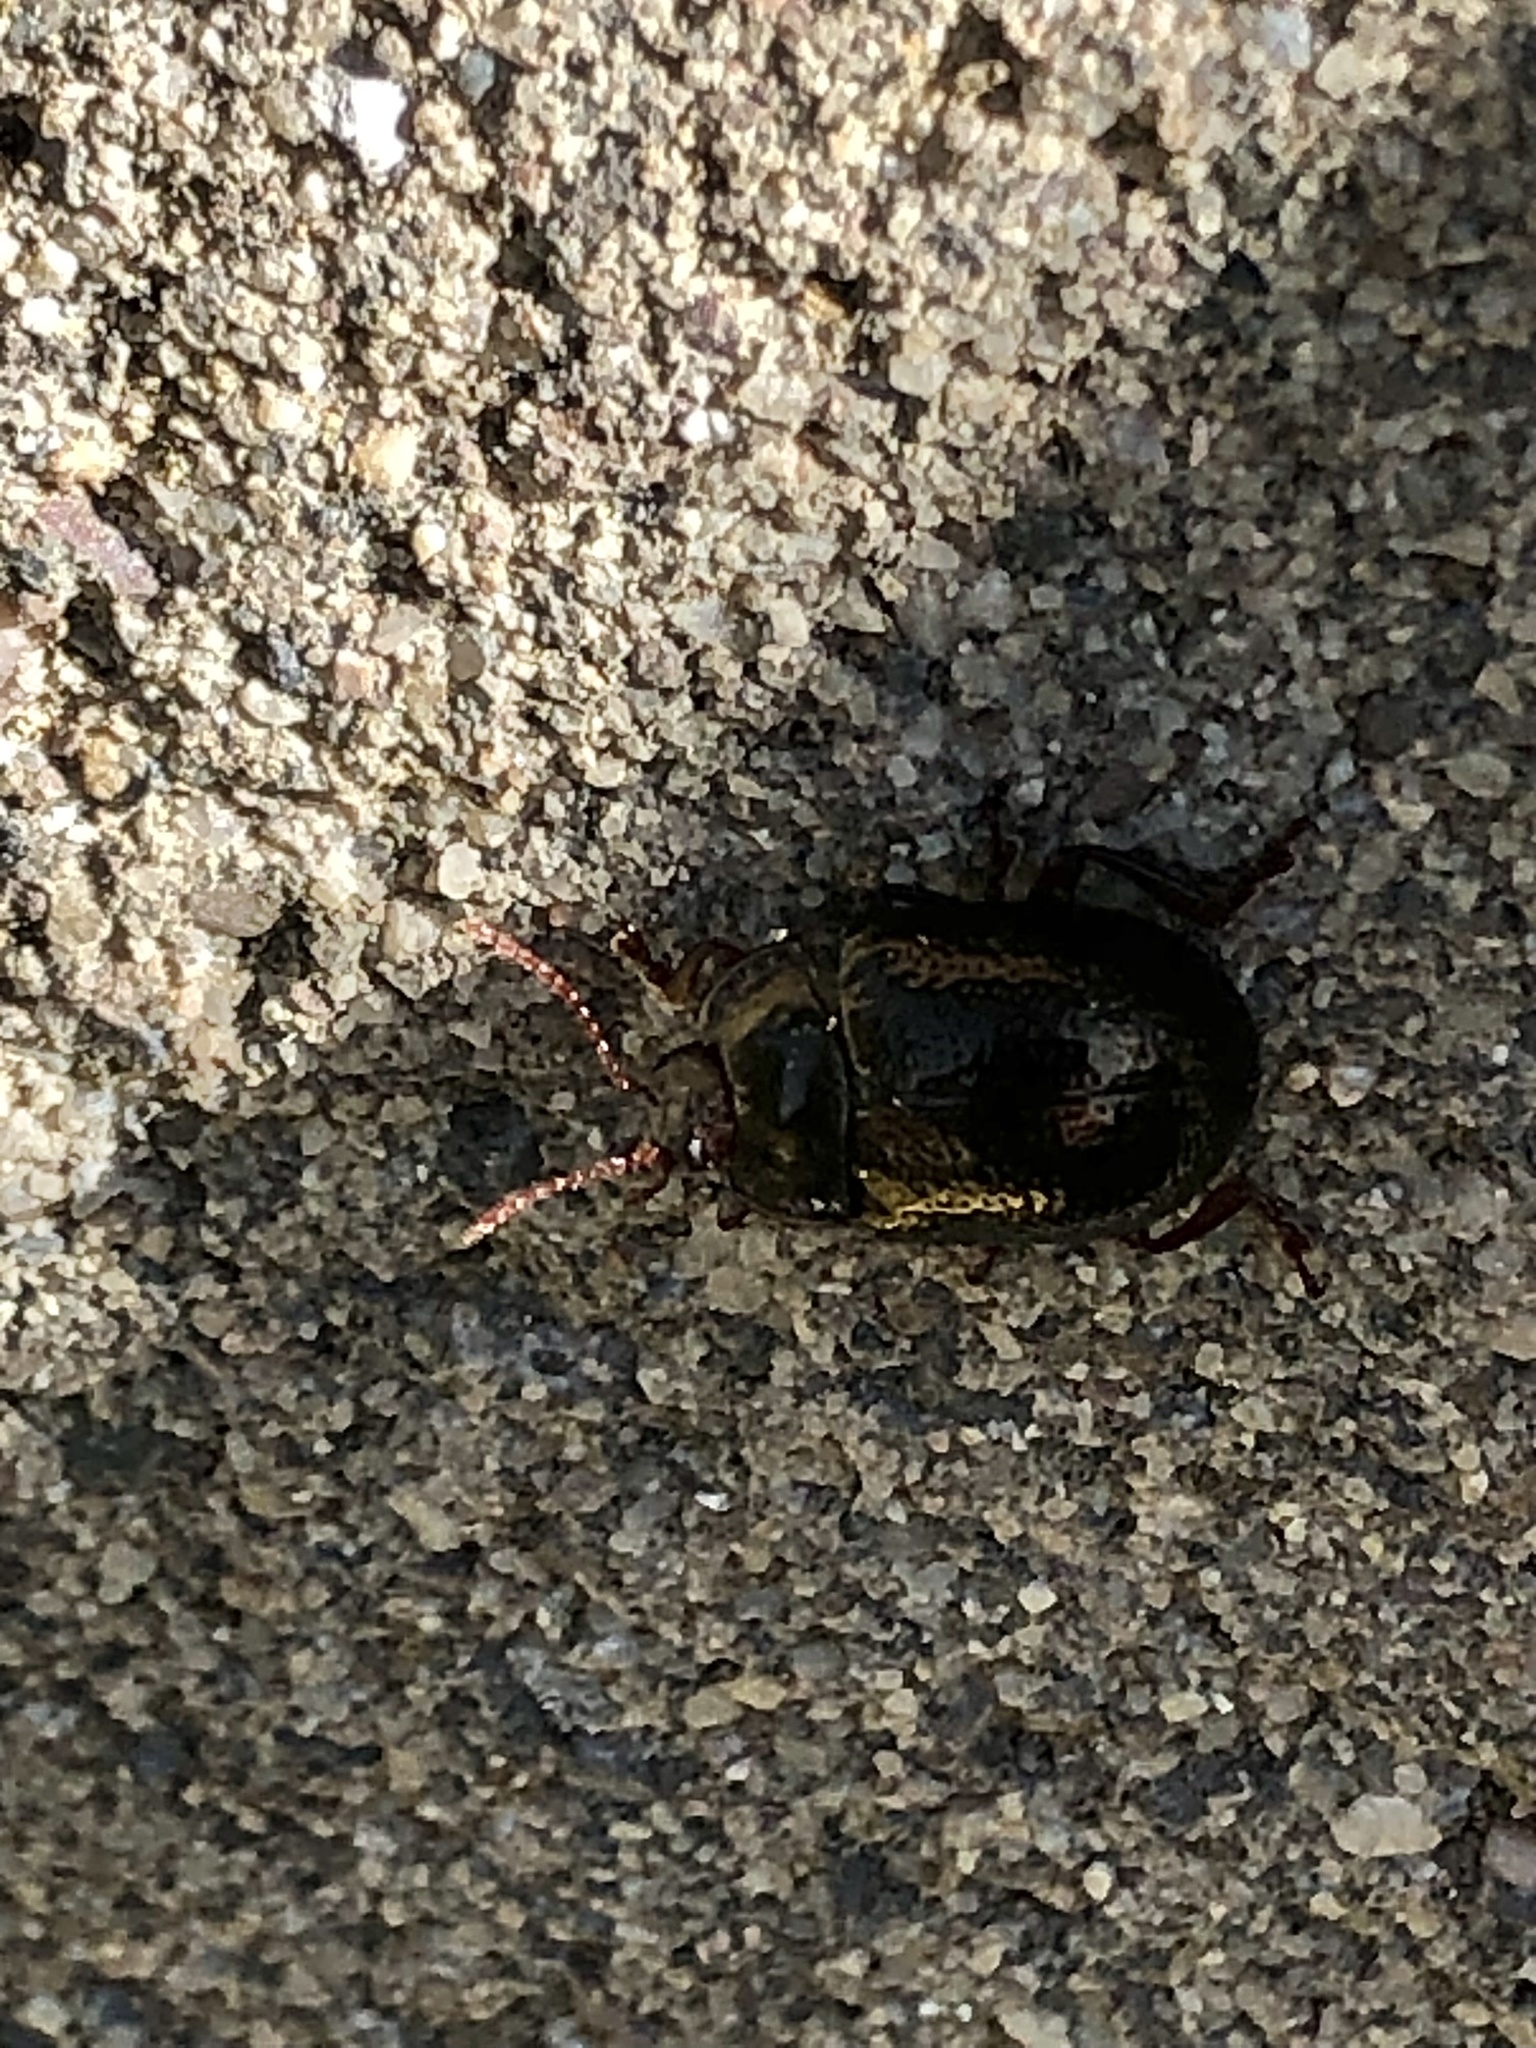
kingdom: Animalia
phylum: Arthropoda
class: Insecta
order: Coleoptera
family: Chrysomelidae
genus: Chrysolina
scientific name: Chrysolina bankii
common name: Leaf beetle
